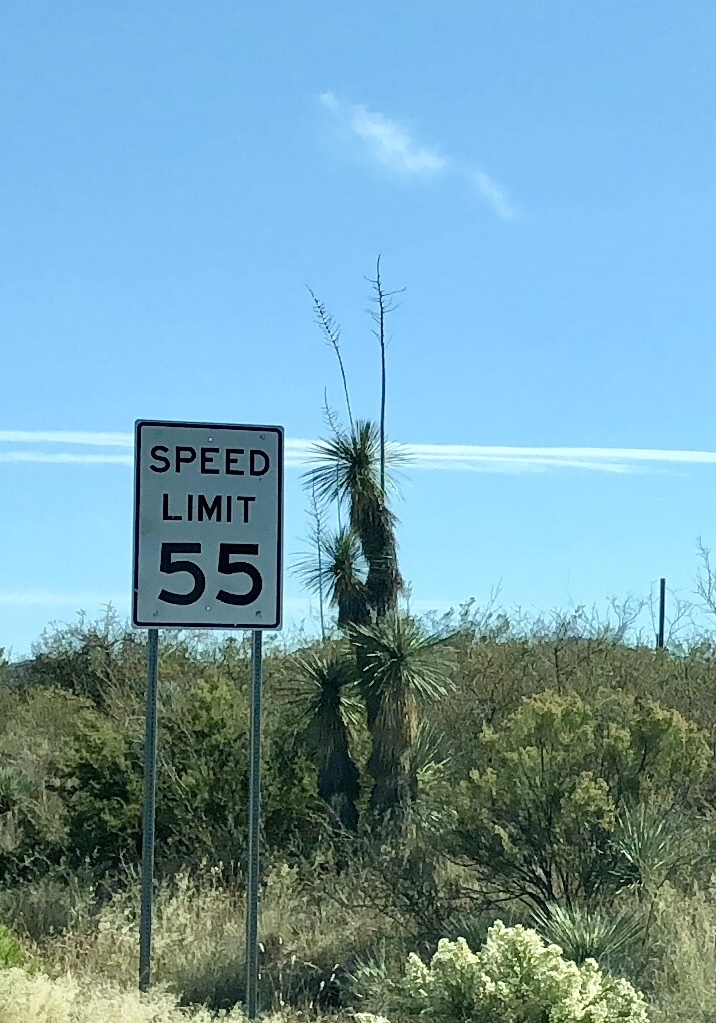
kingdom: Plantae
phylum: Tracheophyta
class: Liliopsida
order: Asparagales
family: Asparagaceae
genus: Yucca
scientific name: Yucca elata
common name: Palmella
